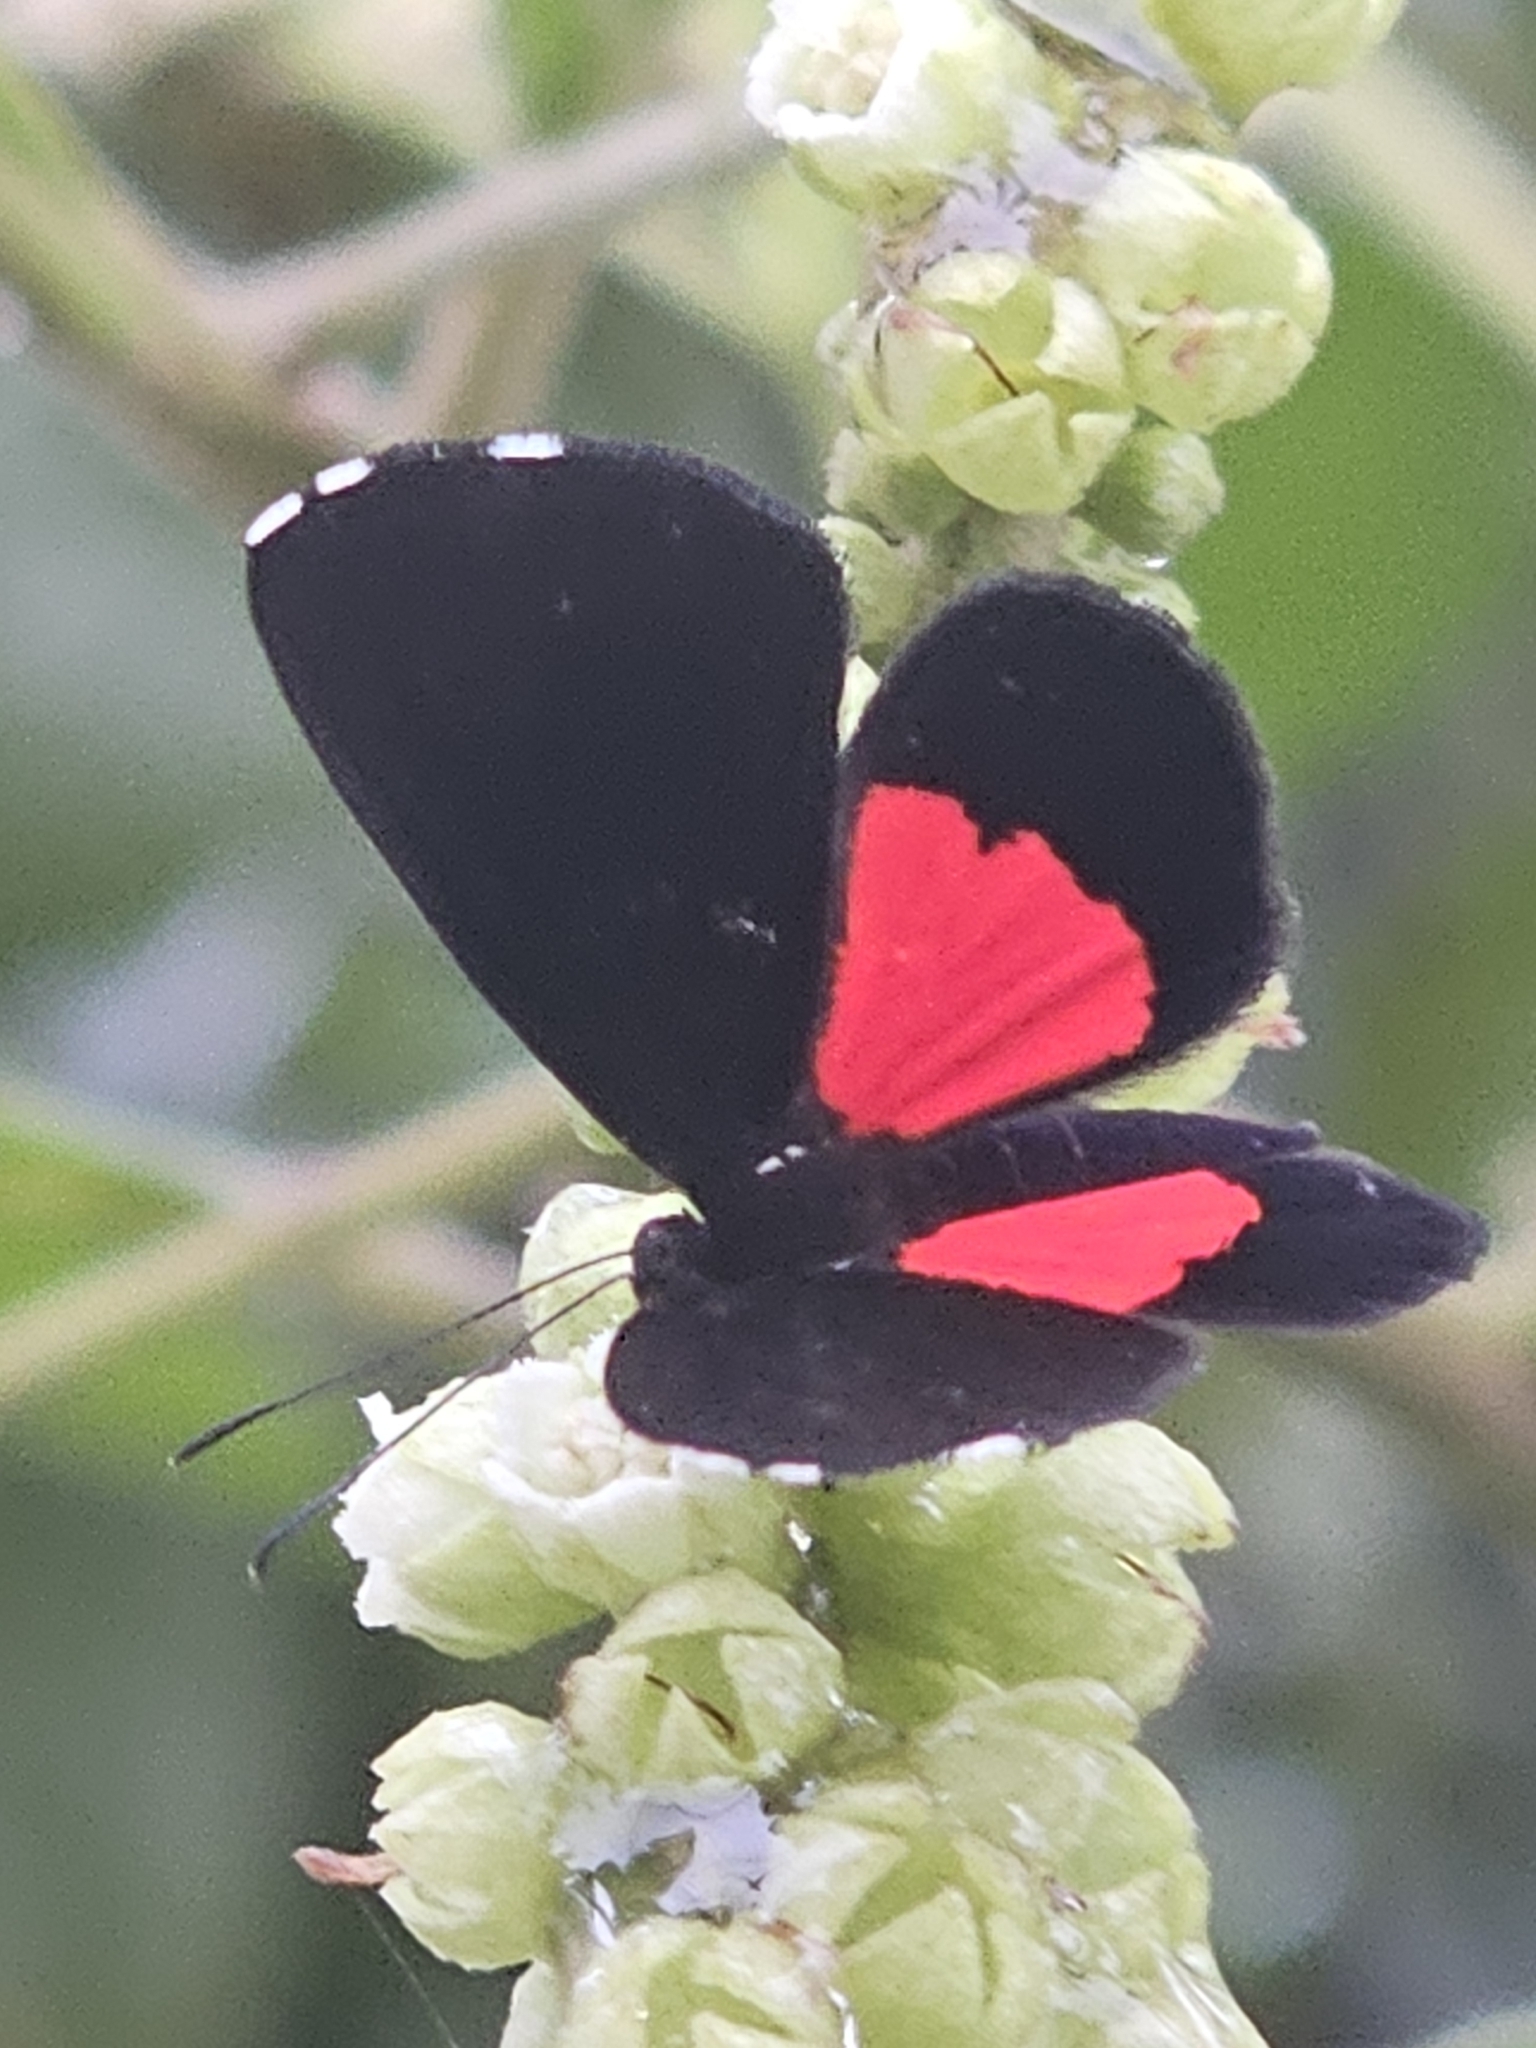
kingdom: Animalia
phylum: Arthropoda
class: Insecta
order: Lepidoptera
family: Riodinidae
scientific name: Riodinidae
